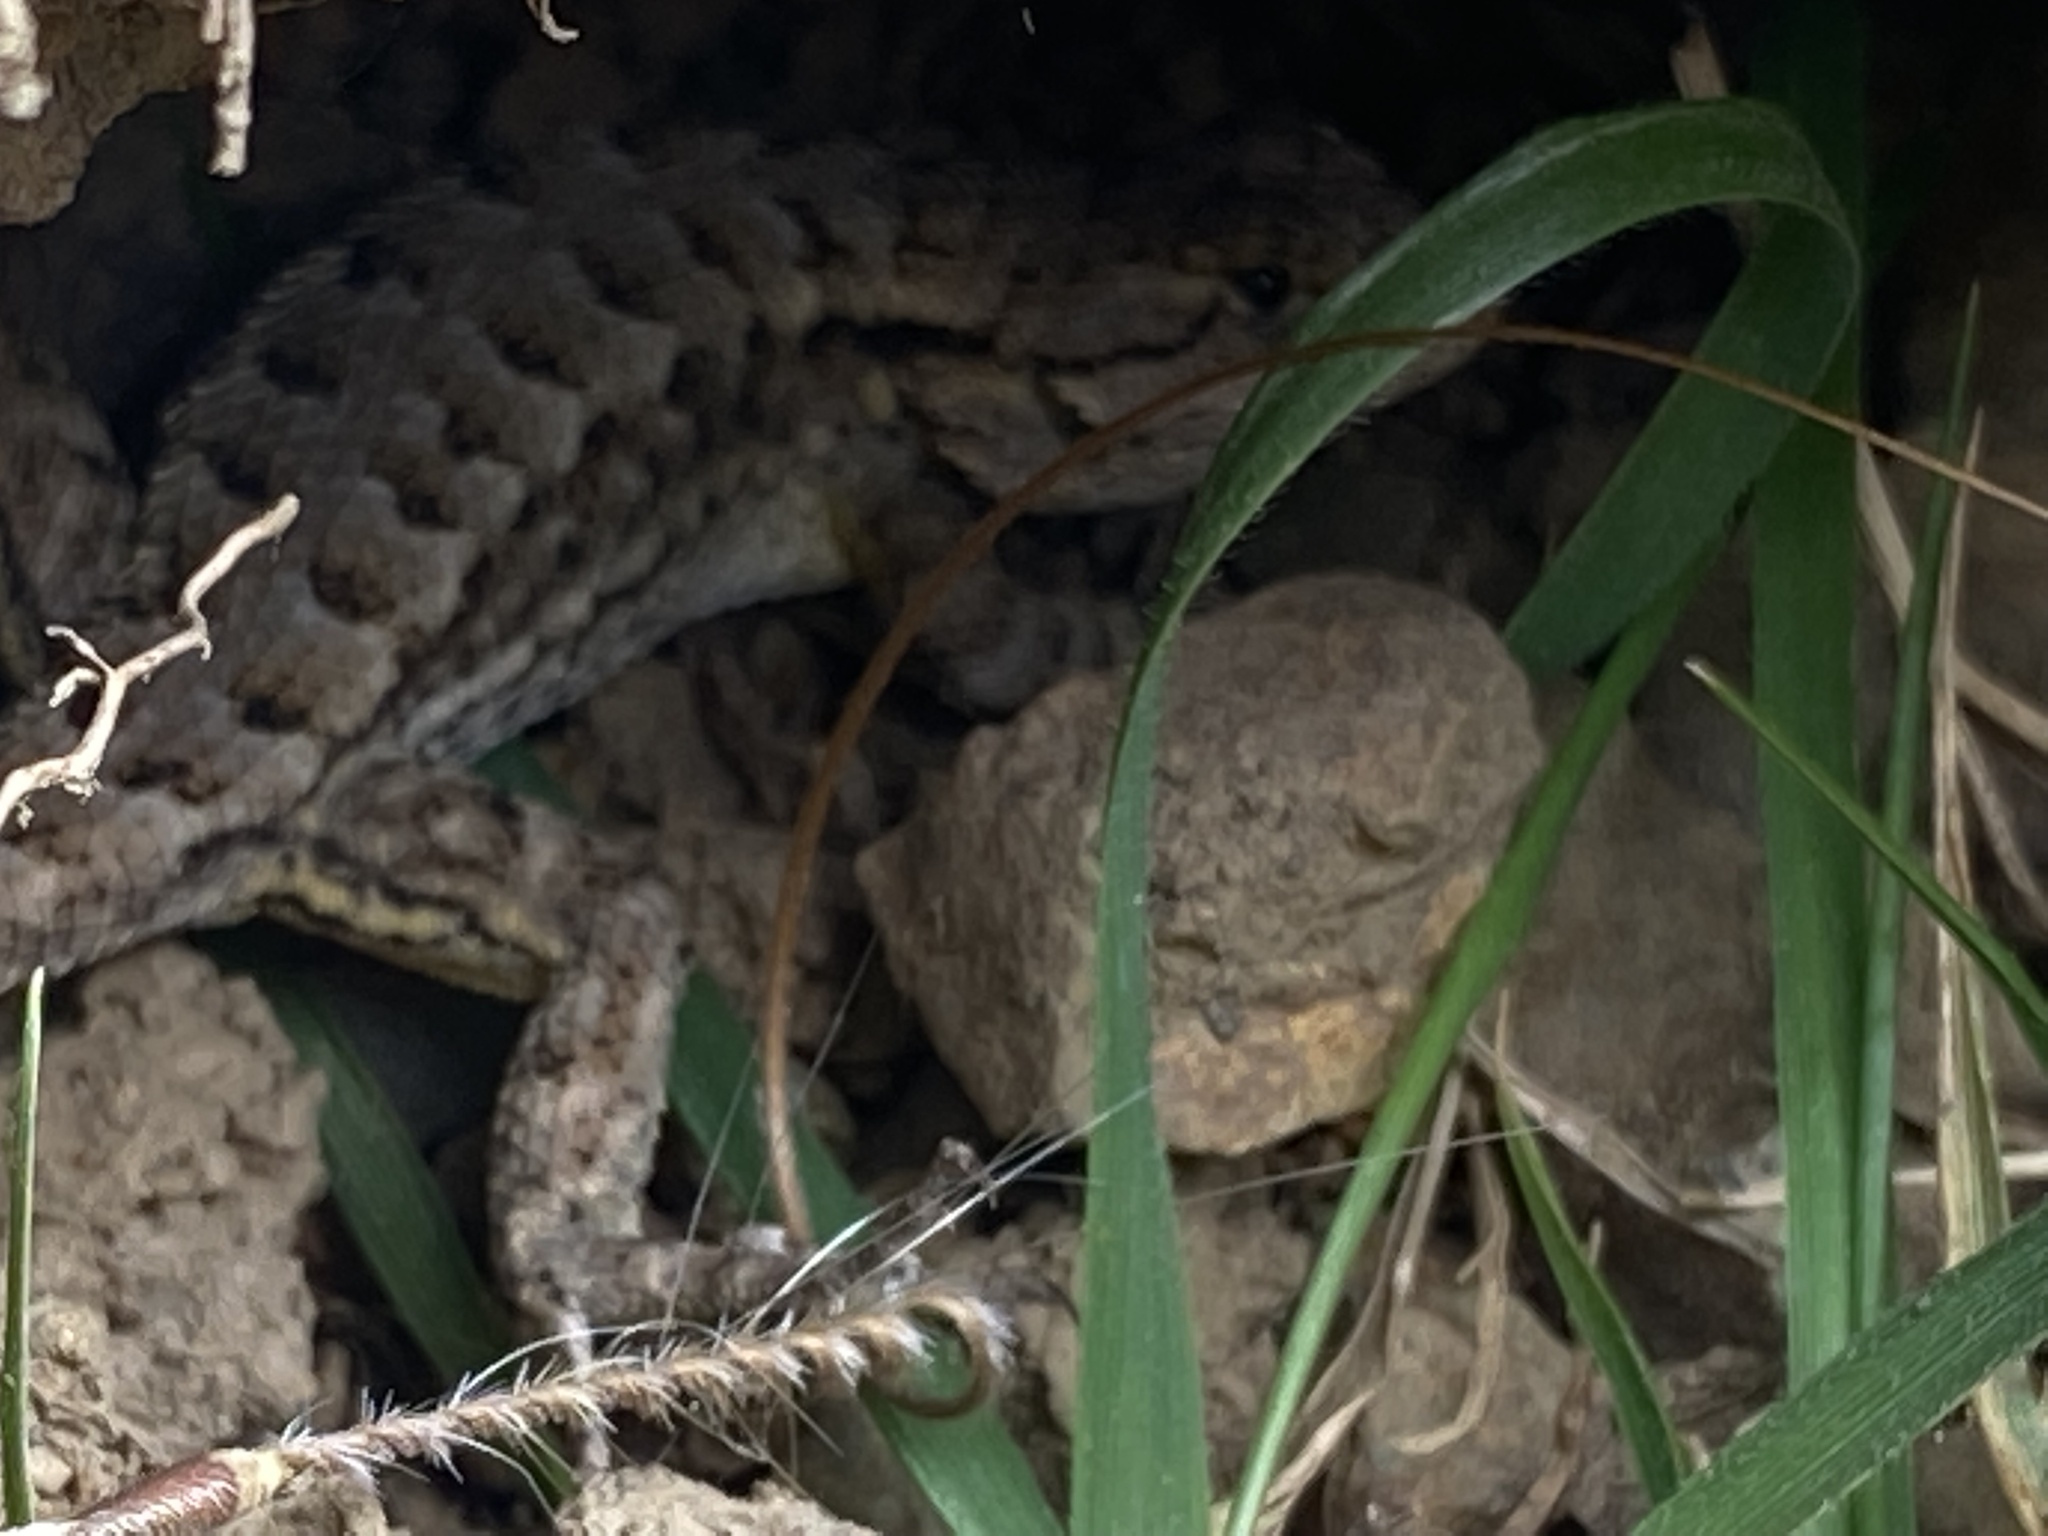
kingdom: Animalia
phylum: Chordata
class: Squamata
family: Phrynosomatidae
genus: Sceloporus
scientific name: Sceloporus occidentalis
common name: Western fence lizard
